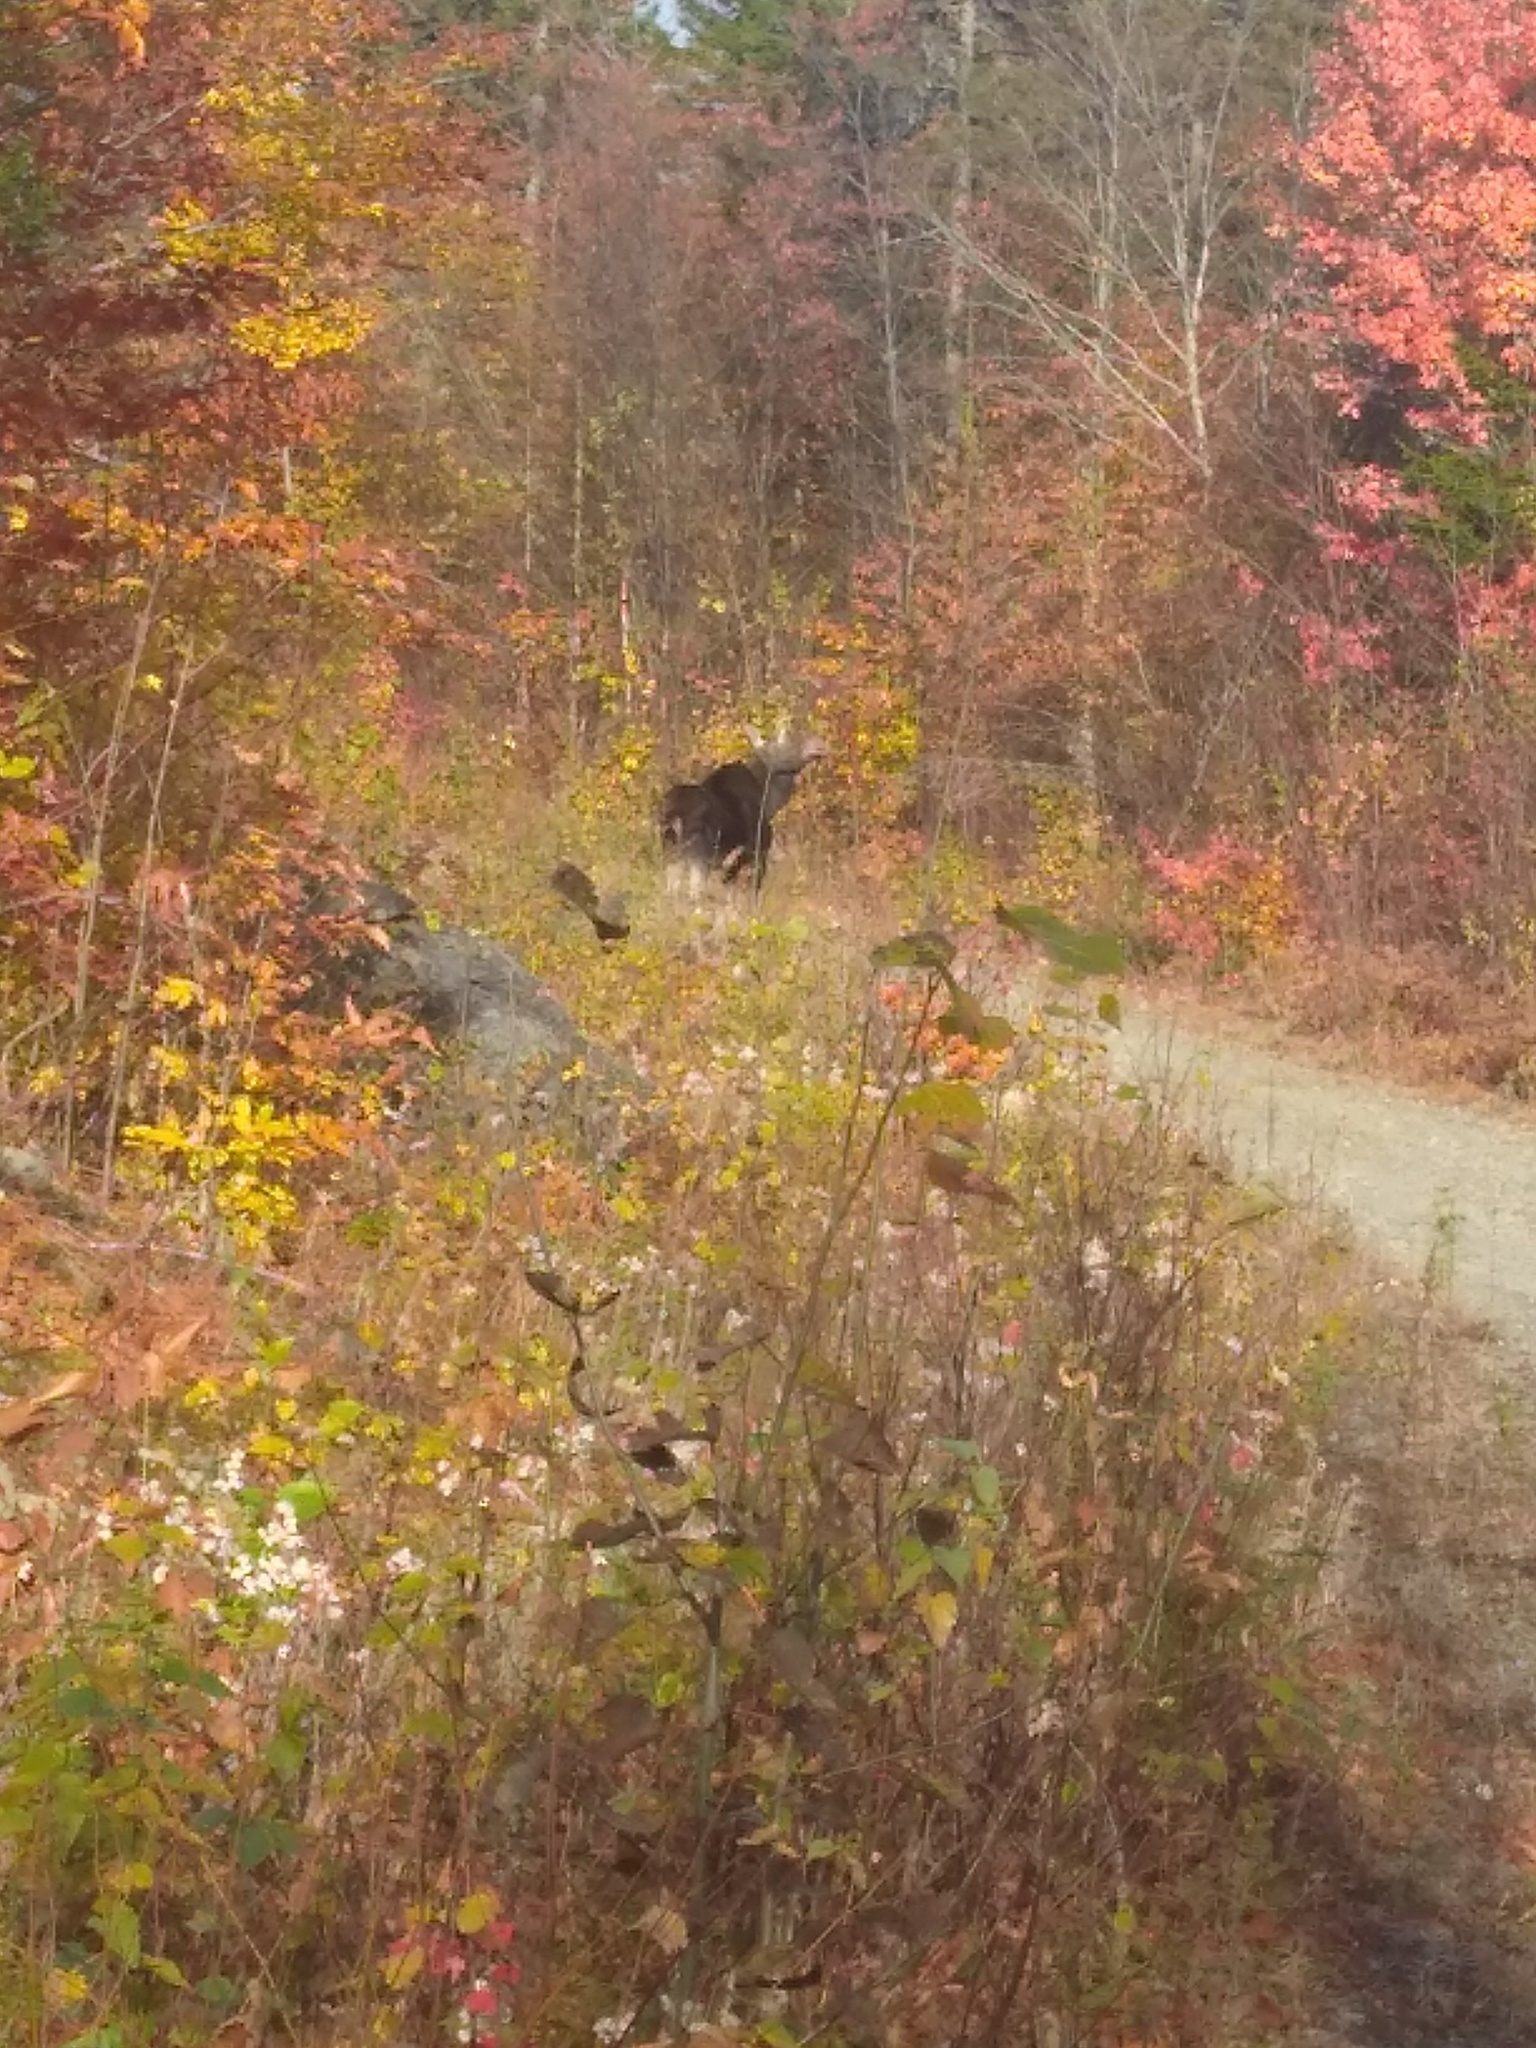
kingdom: Animalia
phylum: Chordata
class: Mammalia
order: Artiodactyla
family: Cervidae
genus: Alces
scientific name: Alces alces
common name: Moose
